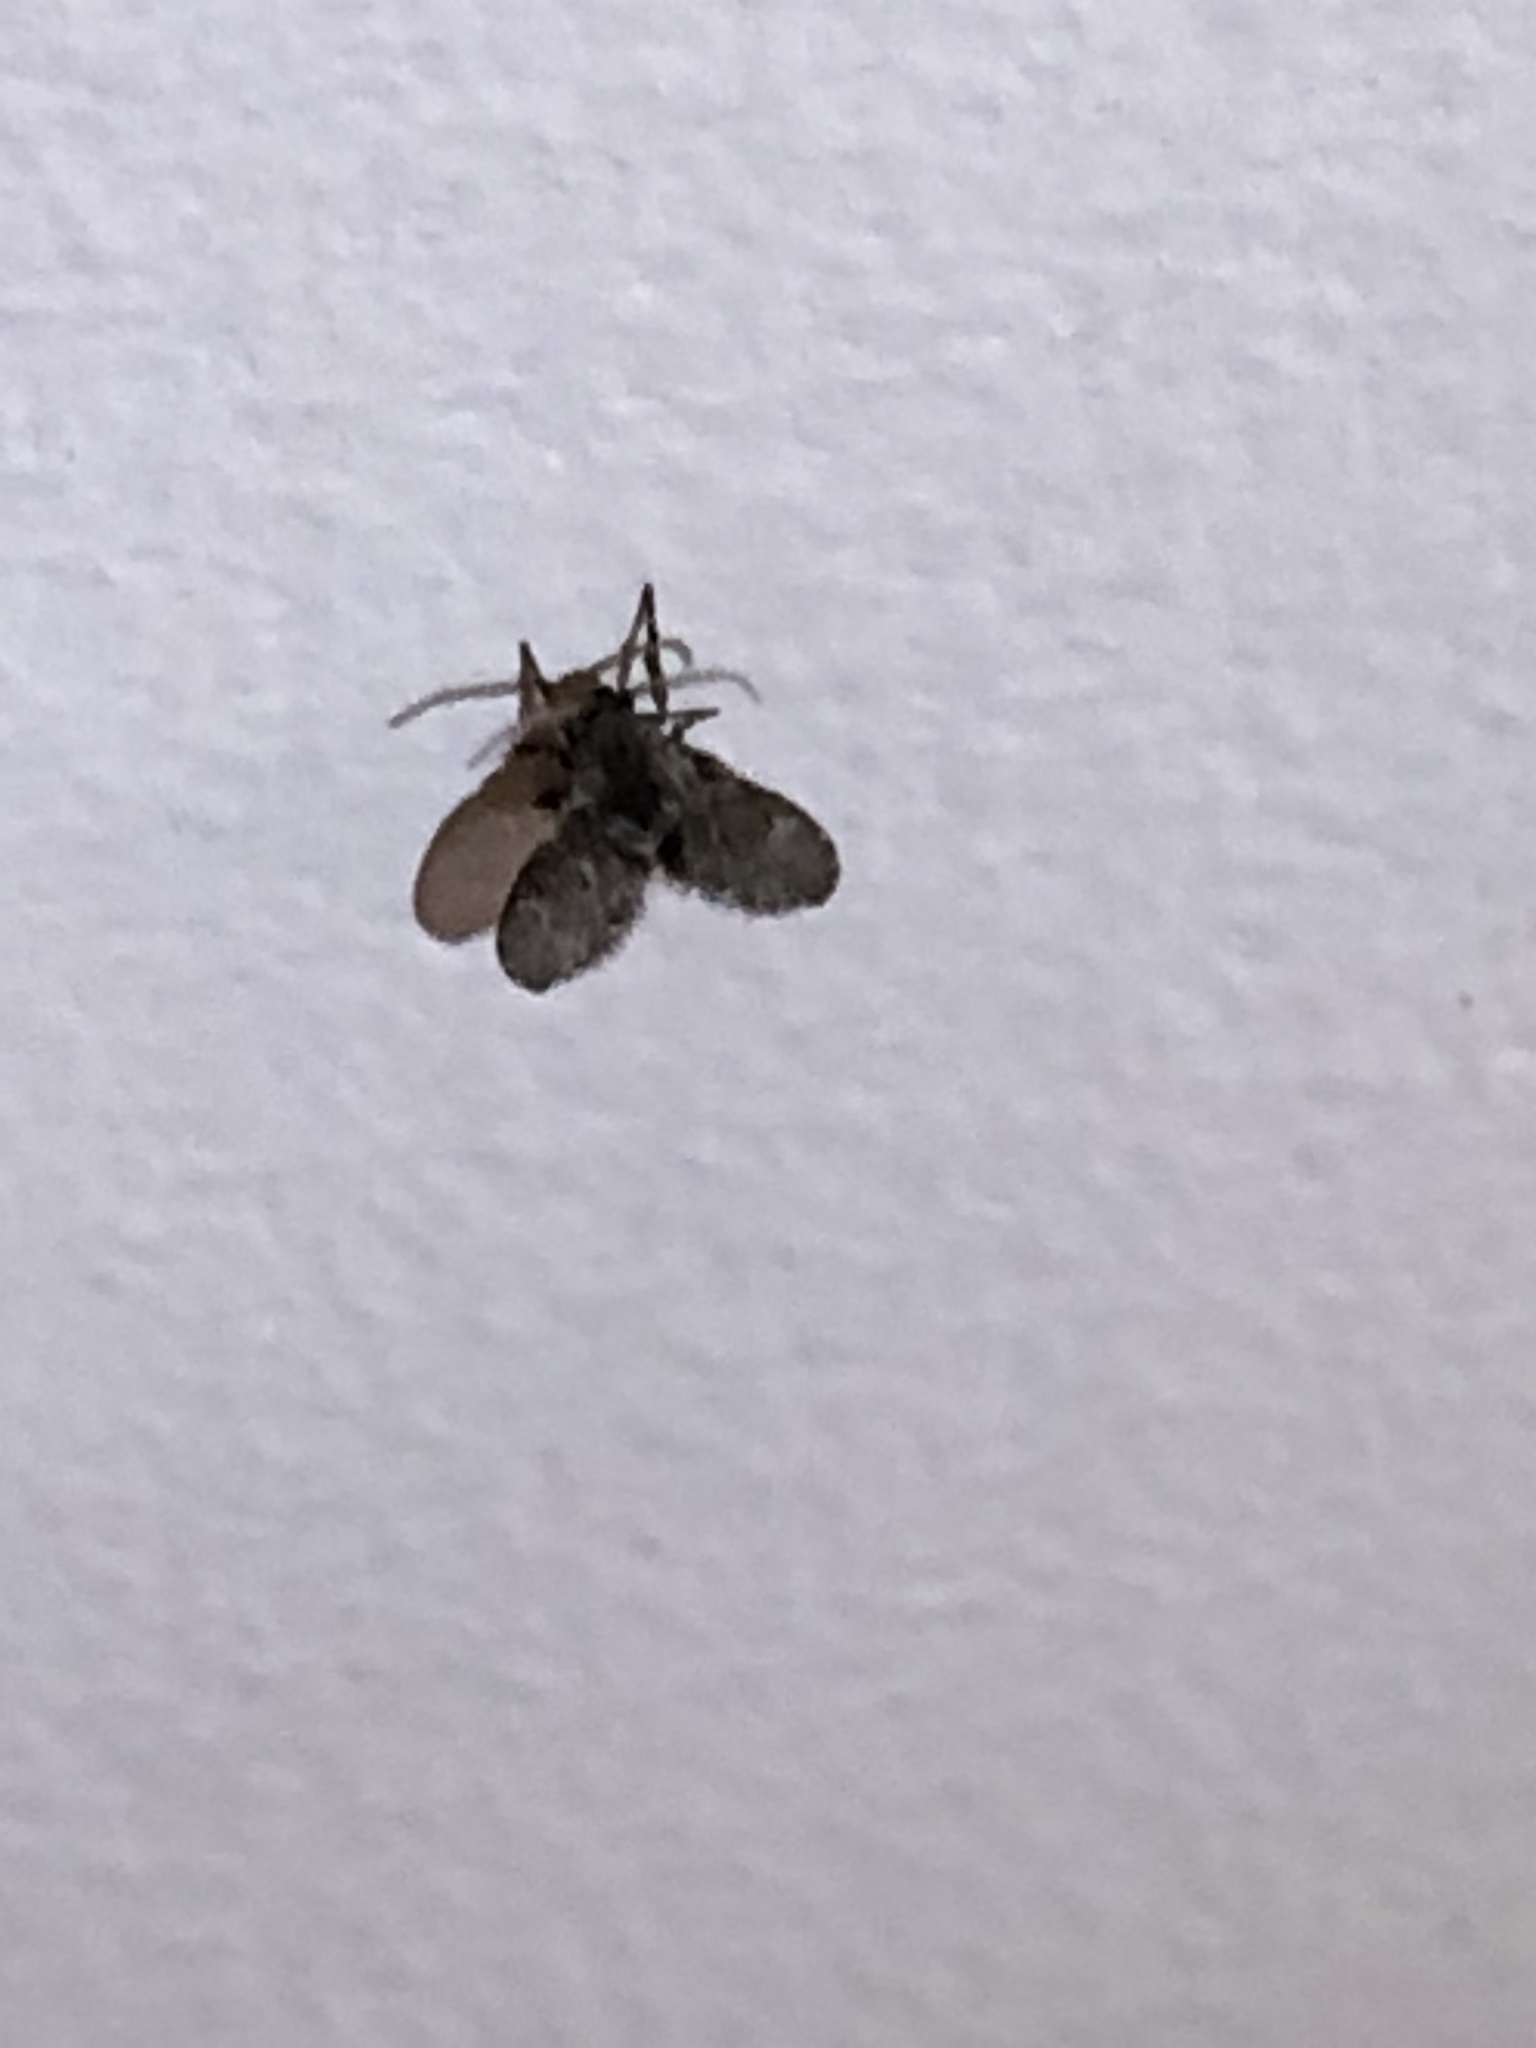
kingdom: Animalia
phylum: Arthropoda
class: Insecta
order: Diptera
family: Psychodidae
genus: Clogmia
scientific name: Clogmia albipunctatus
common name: White-spotted moth fly
